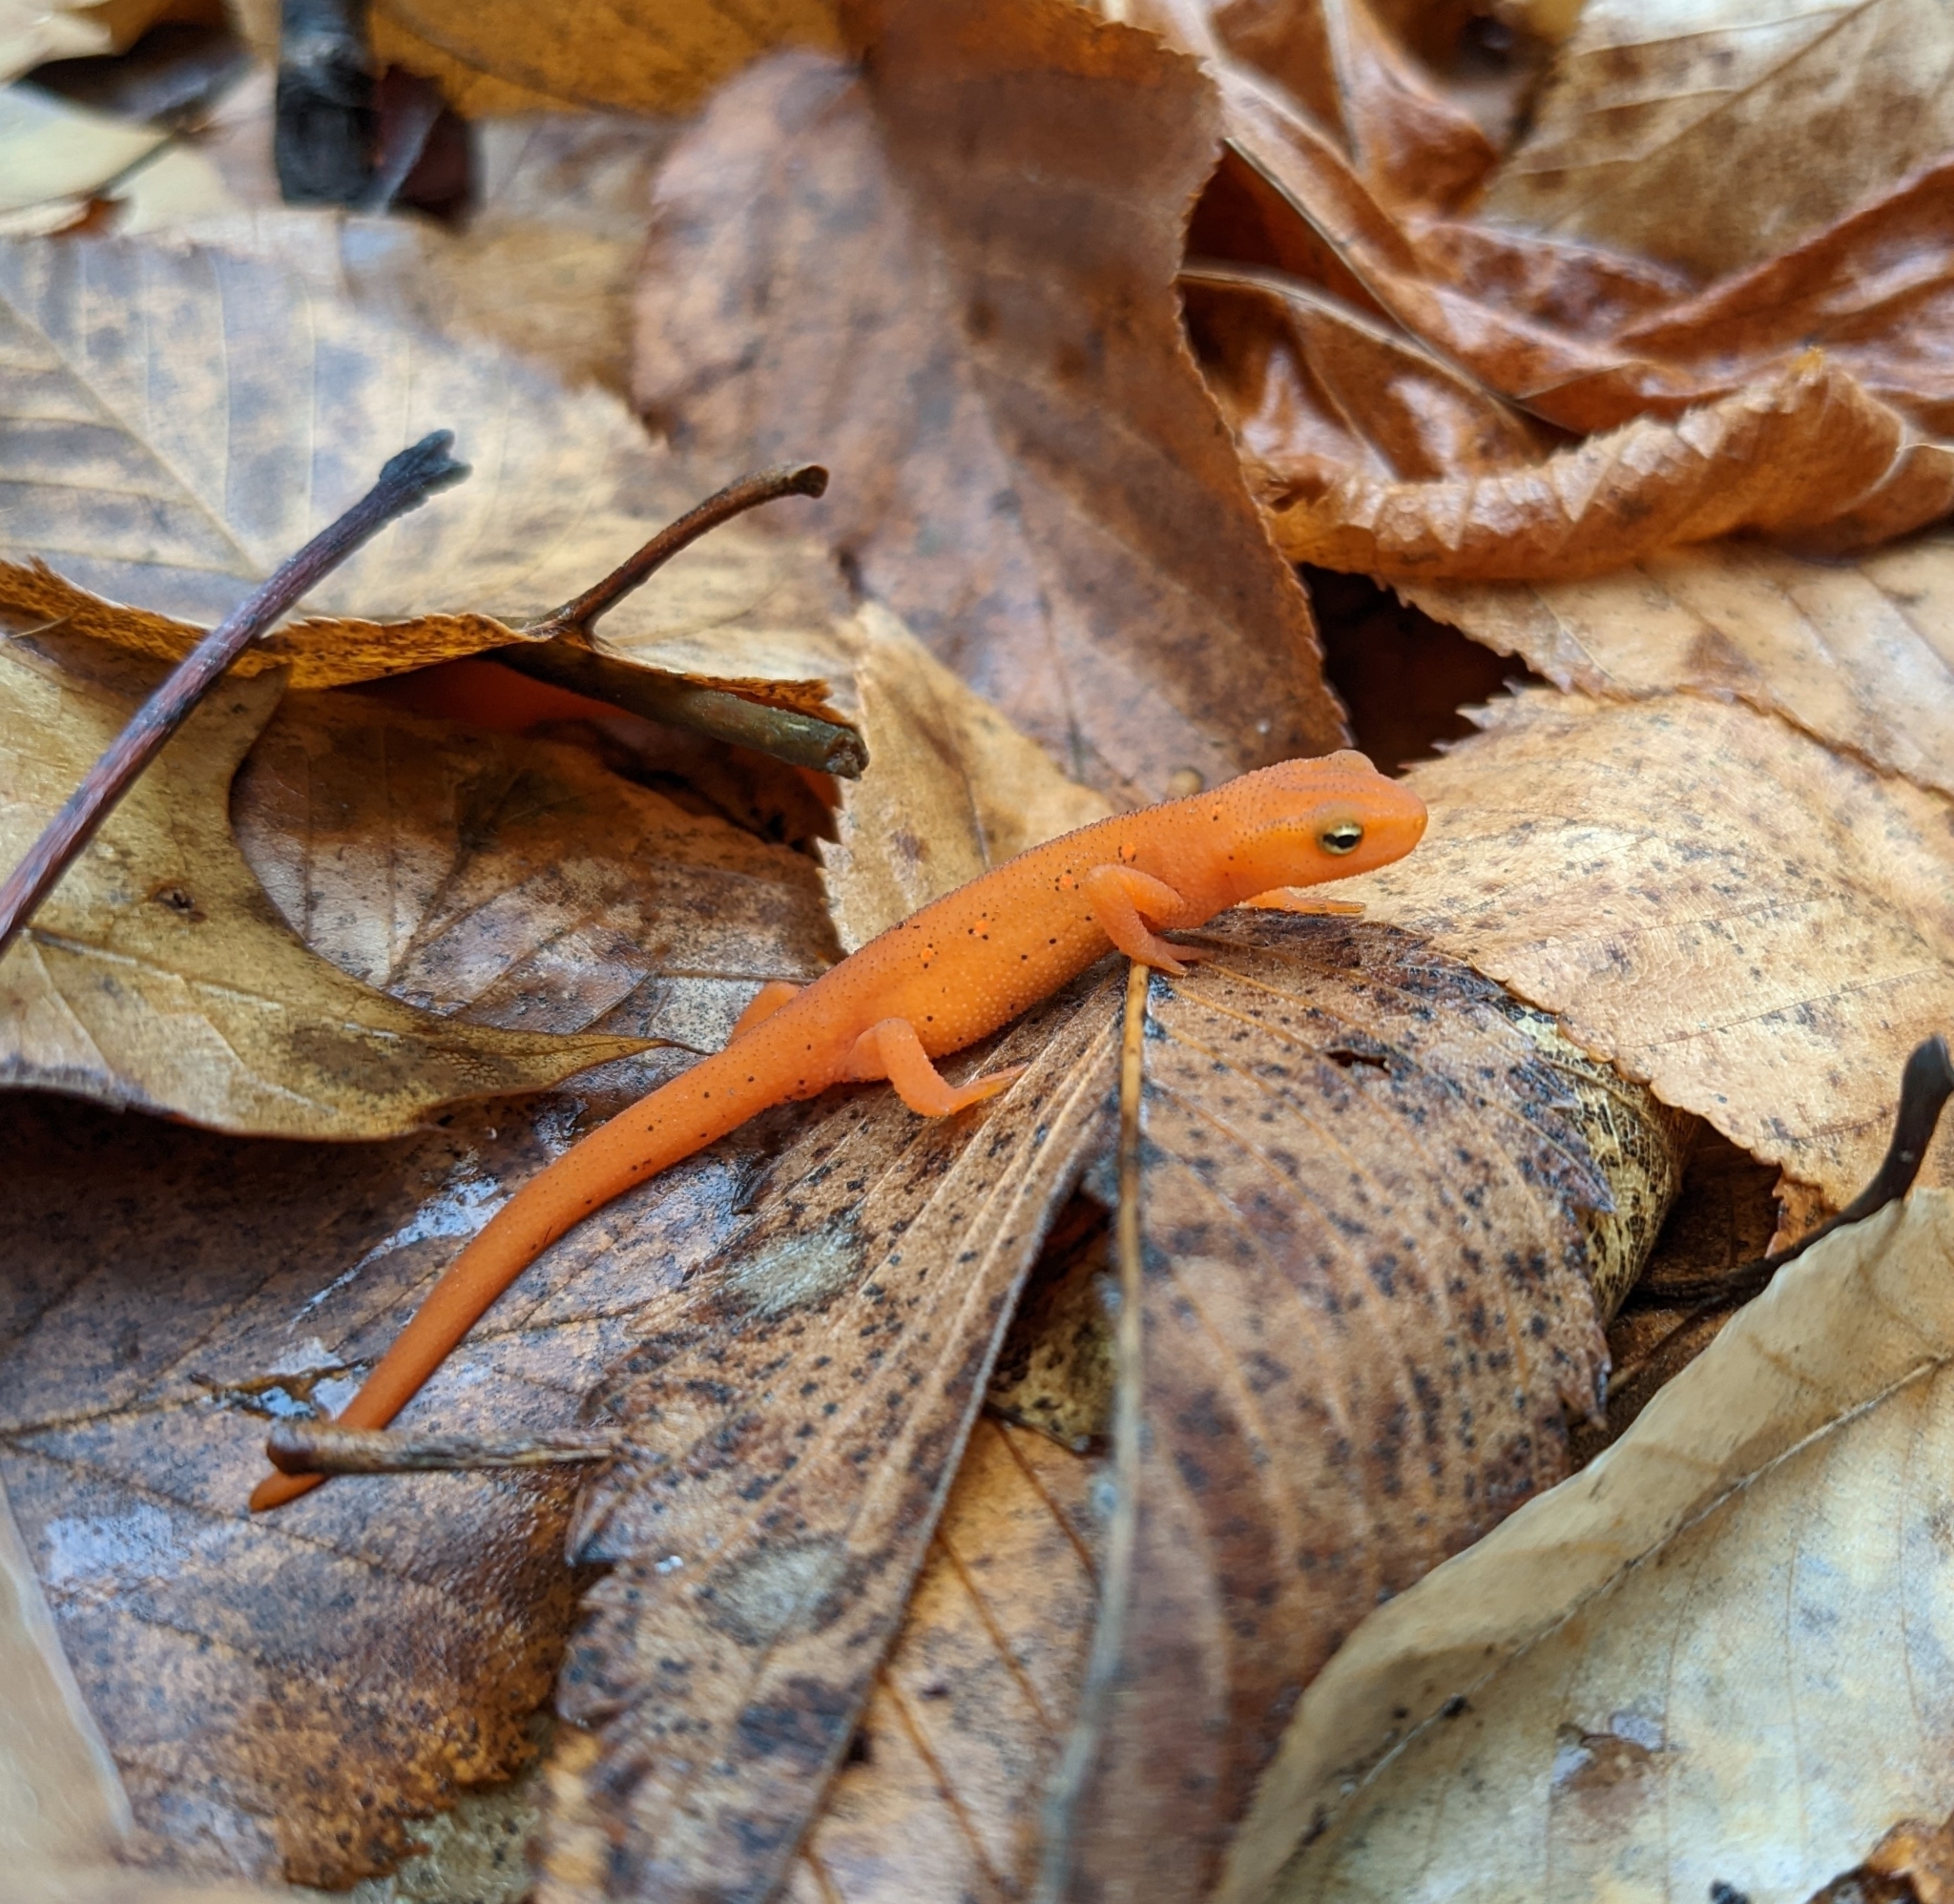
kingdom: Animalia
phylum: Chordata
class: Amphibia
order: Caudata
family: Salamandridae
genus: Notophthalmus
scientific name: Notophthalmus viridescens
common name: Eastern newt
